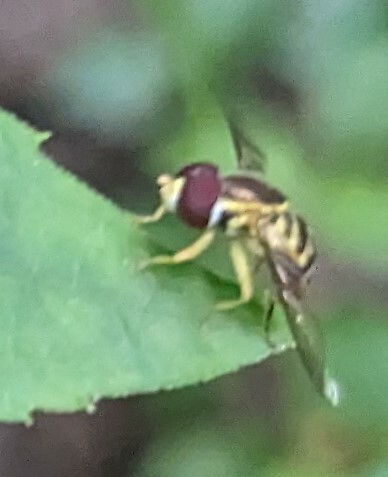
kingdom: Animalia
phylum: Arthropoda
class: Insecta
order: Diptera
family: Syrphidae
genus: Toxomerus
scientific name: Toxomerus geminatus
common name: Eastern calligrapher
